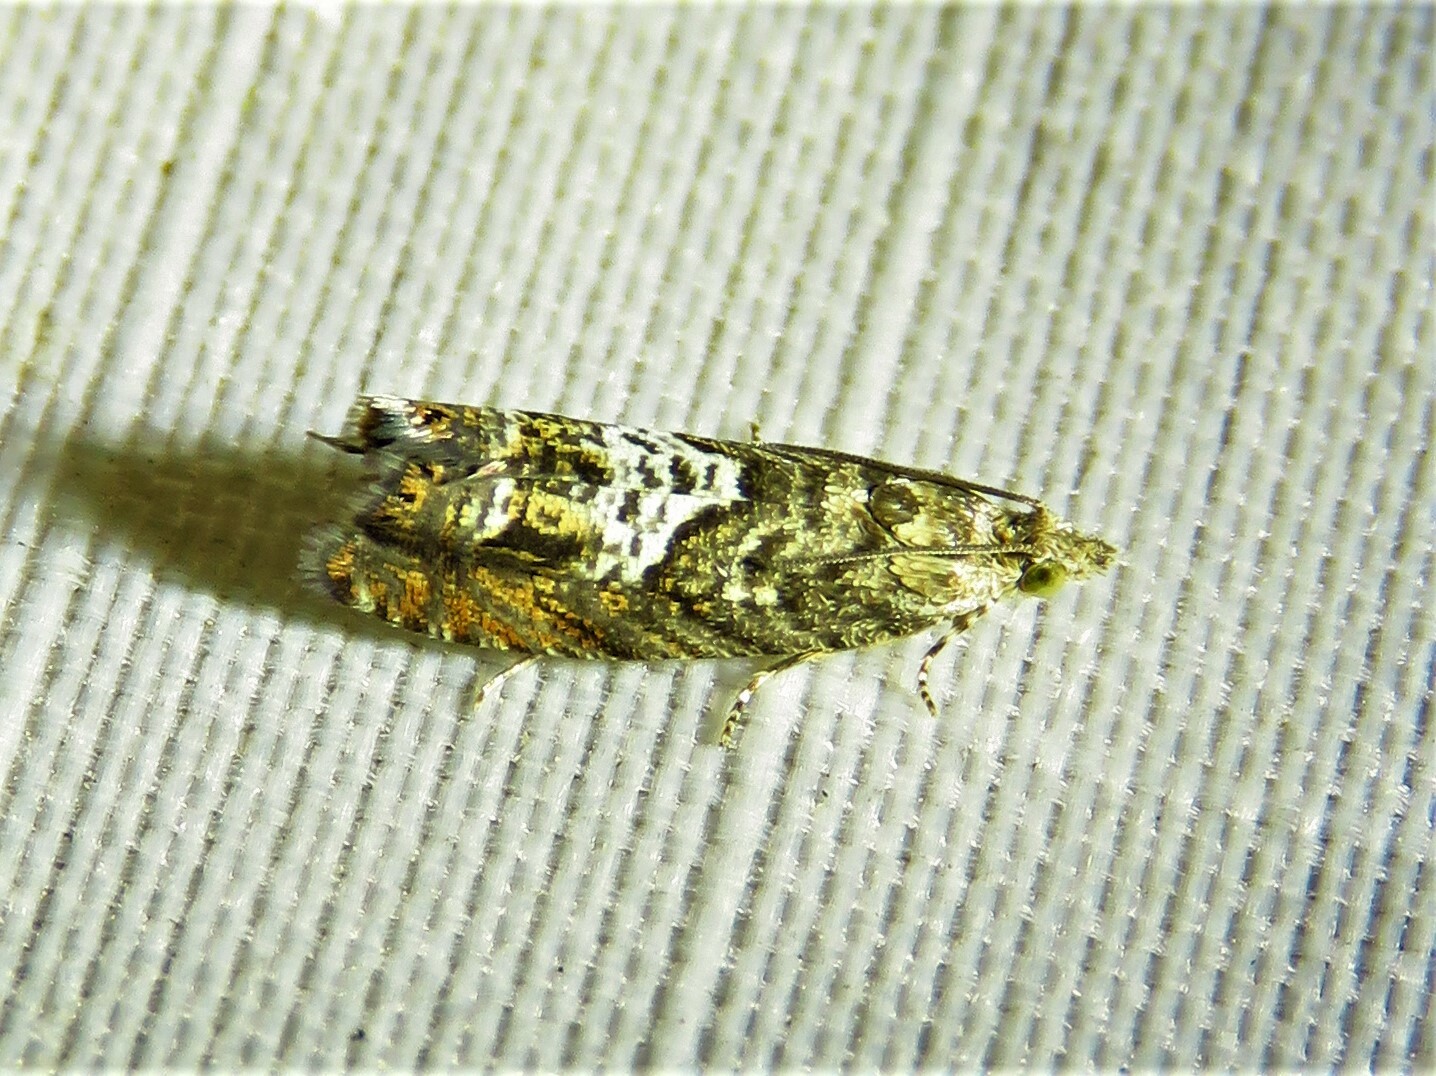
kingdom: Animalia
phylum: Arthropoda
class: Insecta
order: Lepidoptera
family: Tortricidae
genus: Goditha
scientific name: Goditha bumeliana
